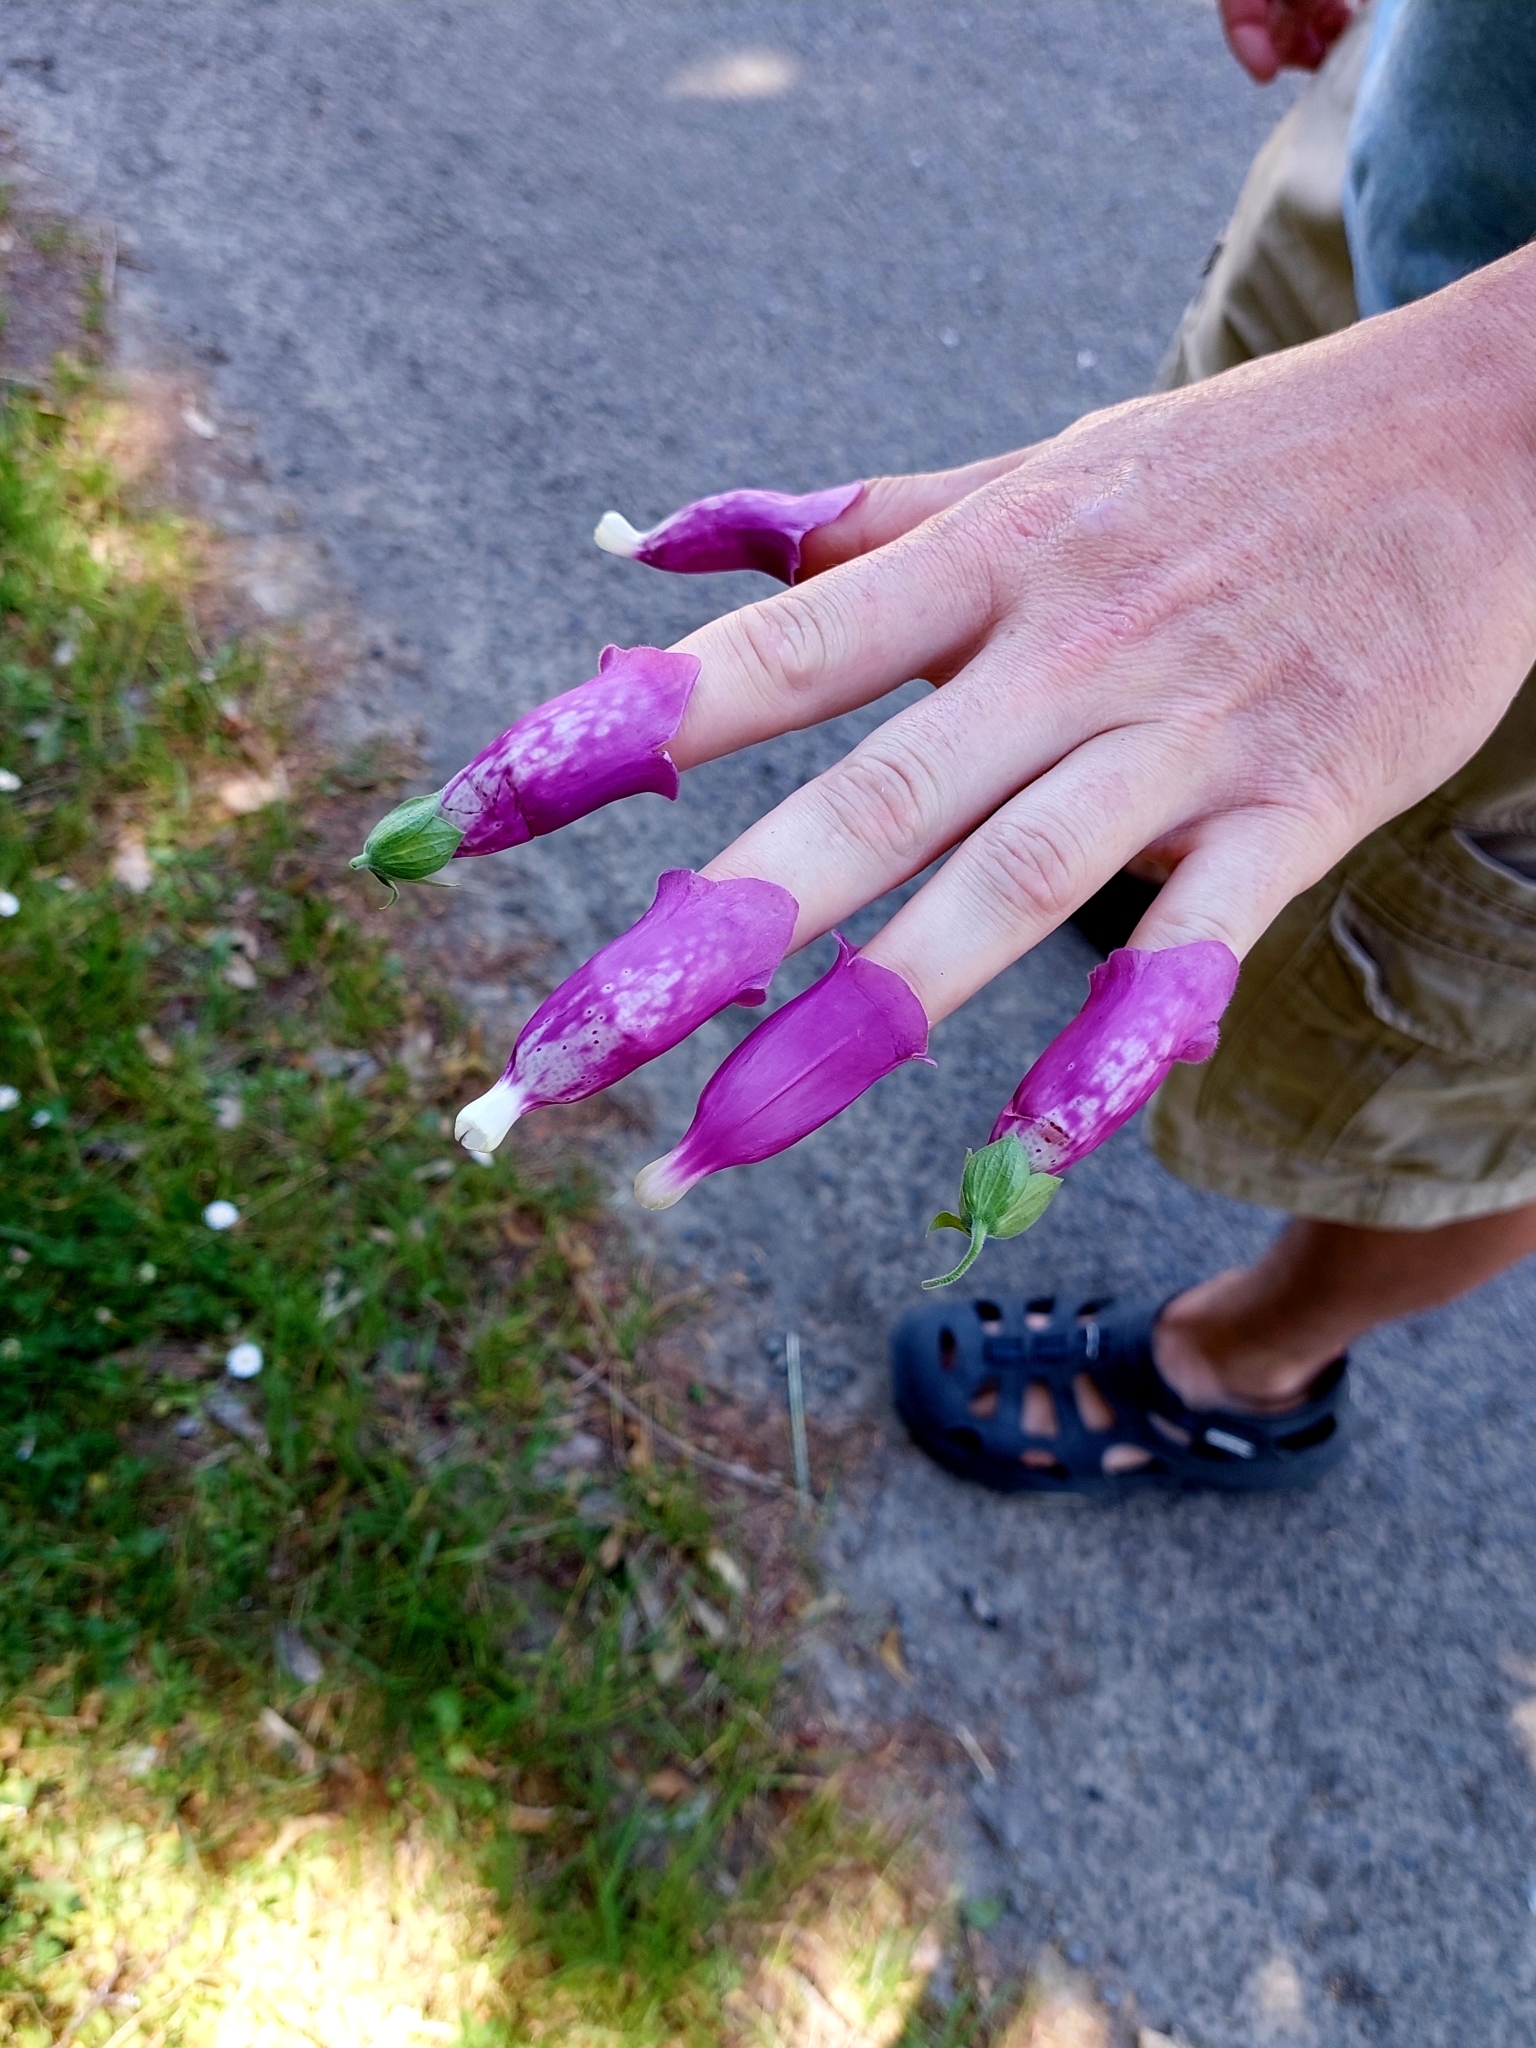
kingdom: Plantae
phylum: Tracheophyta
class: Magnoliopsida
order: Lamiales
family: Plantaginaceae
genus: Digitalis
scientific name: Digitalis purpurea
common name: Foxglove
